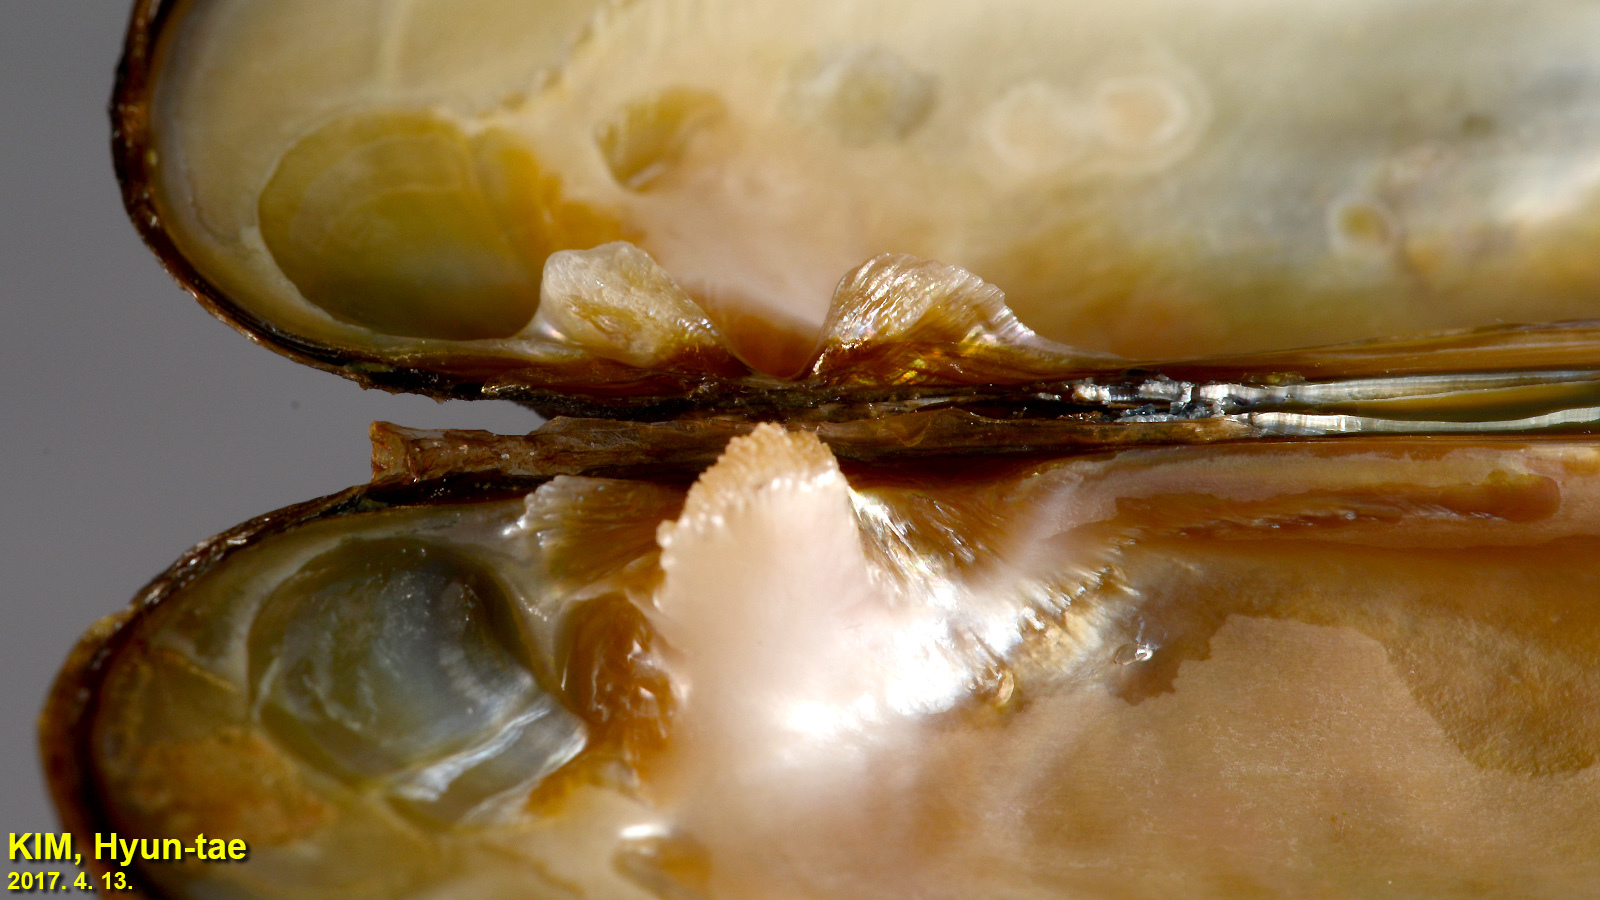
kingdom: Animalia
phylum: Mollusca
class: Bivalvia
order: Unionida
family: Unionidae
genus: Lanceolaria
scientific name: Lanceolaria acrorrhyncha
